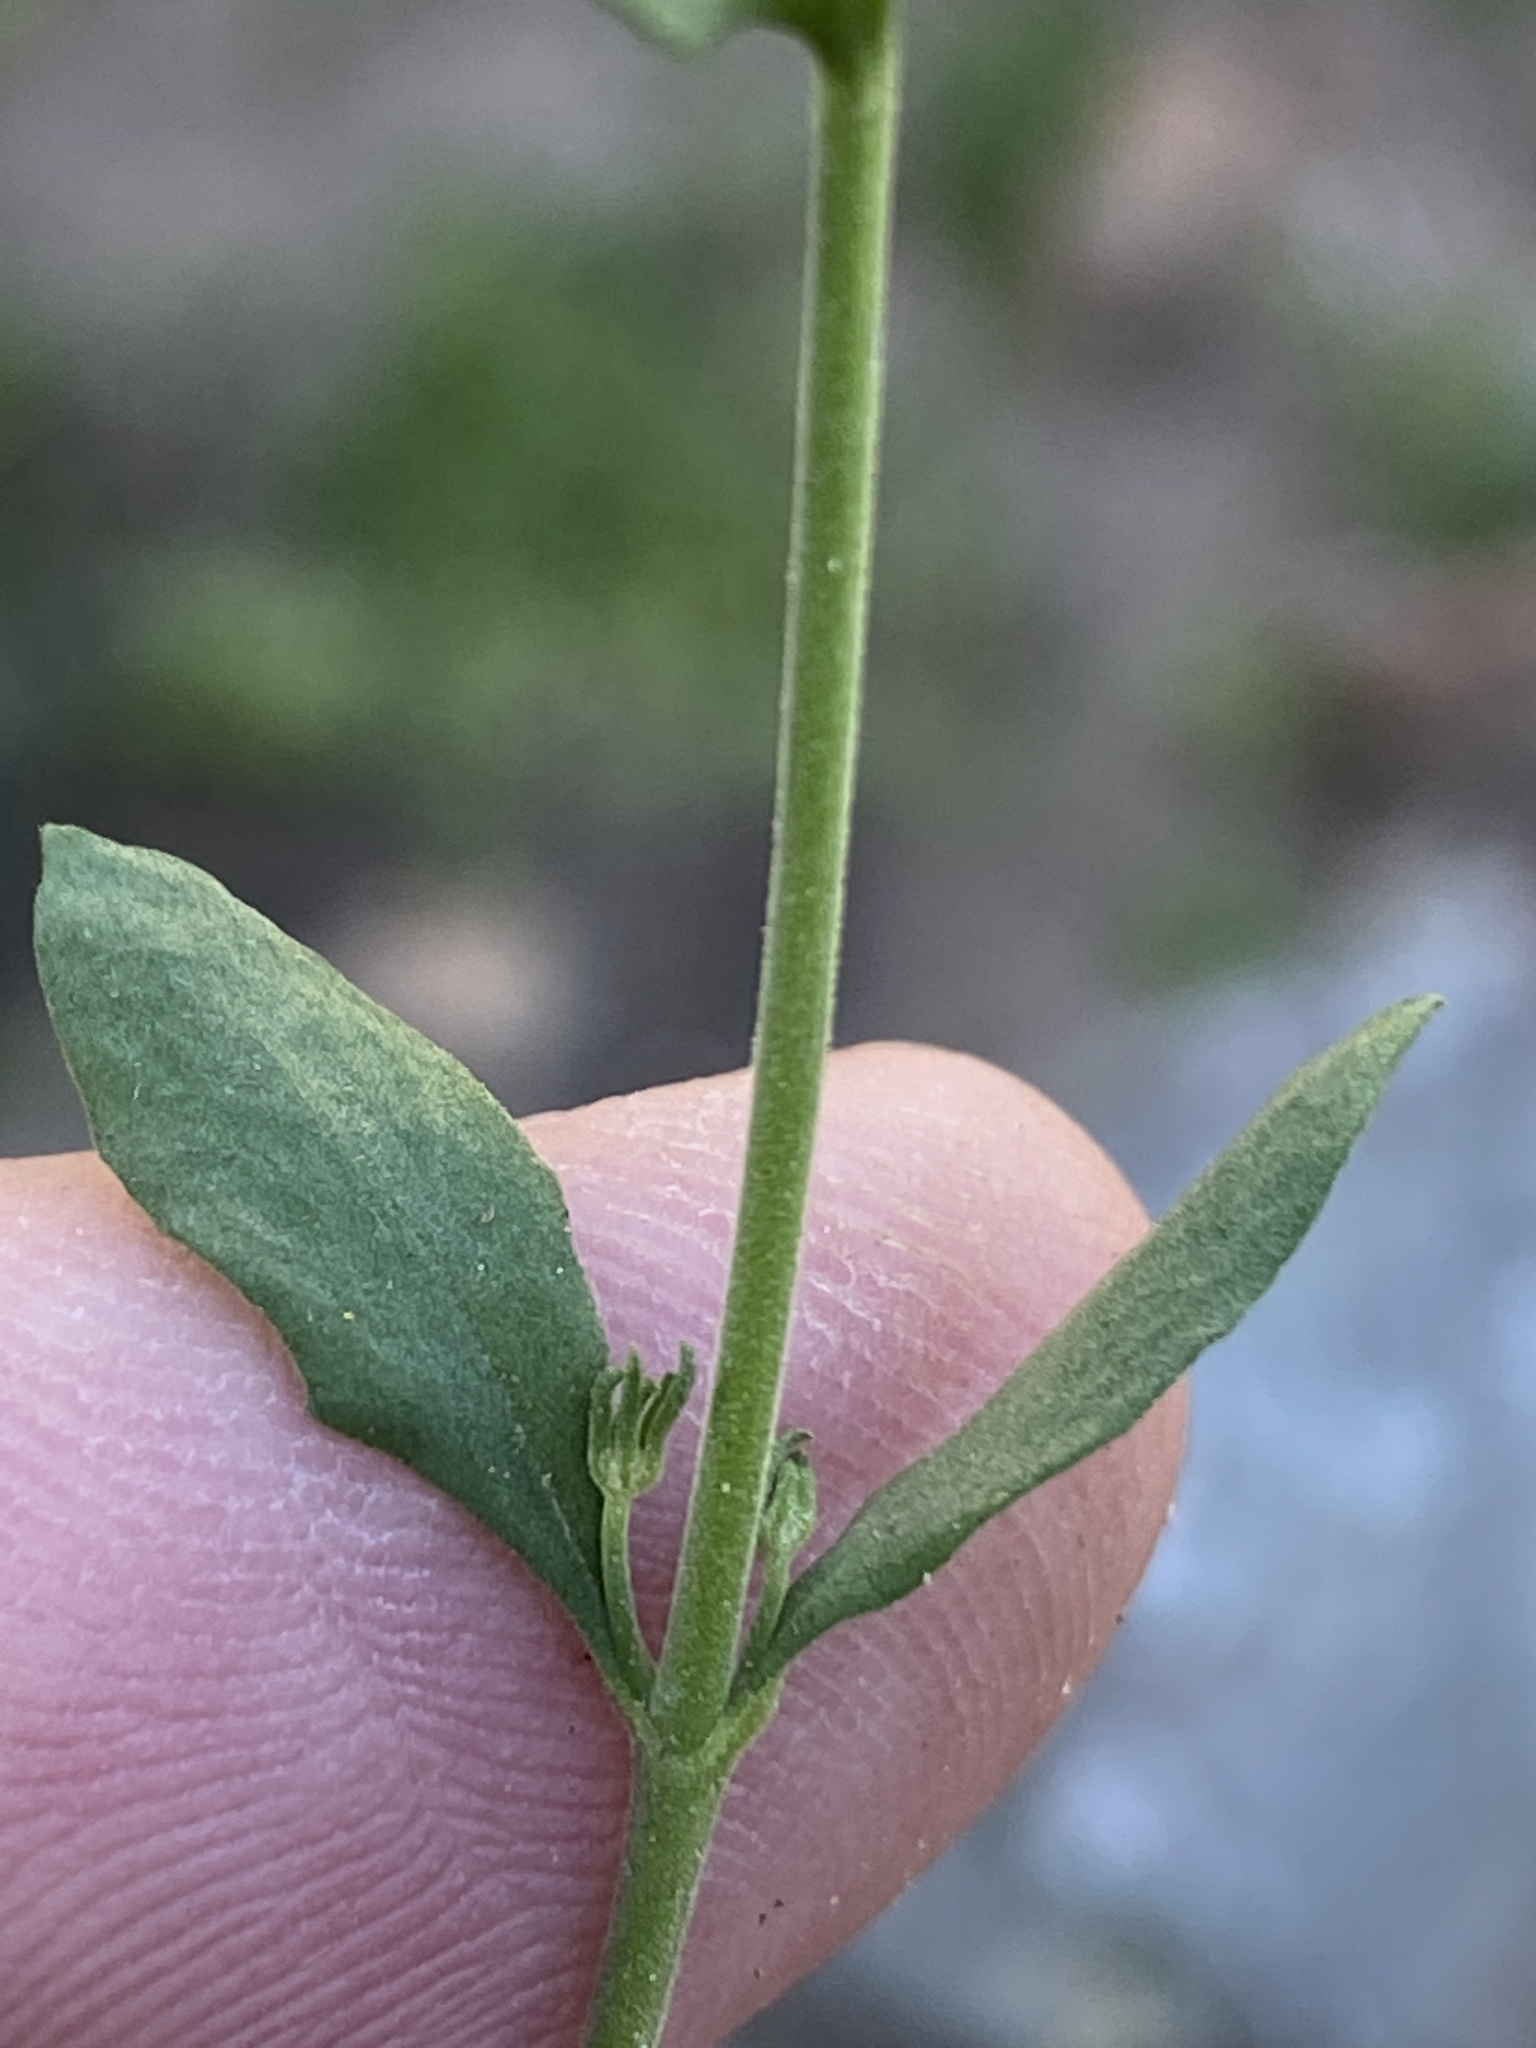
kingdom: Plantae
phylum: Tracheophyta
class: Magnoliopsida
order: Lamiales
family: Scrophulariaceae
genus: Chaenostoma
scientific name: Chaenostoma marifolium
